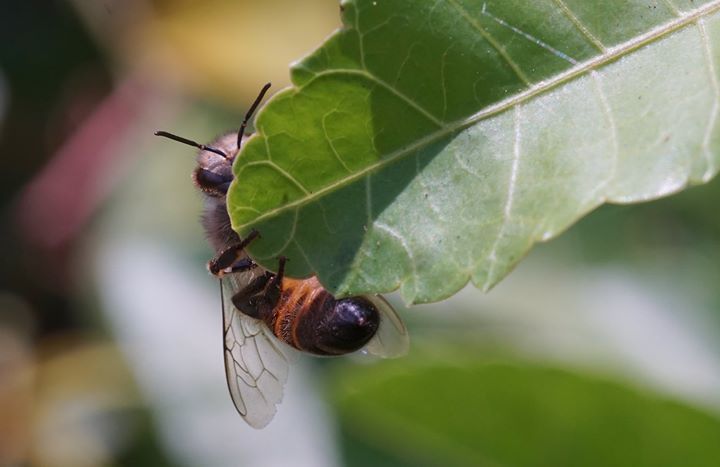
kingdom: Animalia
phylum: Arthropoda
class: Insecta
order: Hymenoptera
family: Apidae
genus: Apis
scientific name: Apis mellifera
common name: Honey bee
